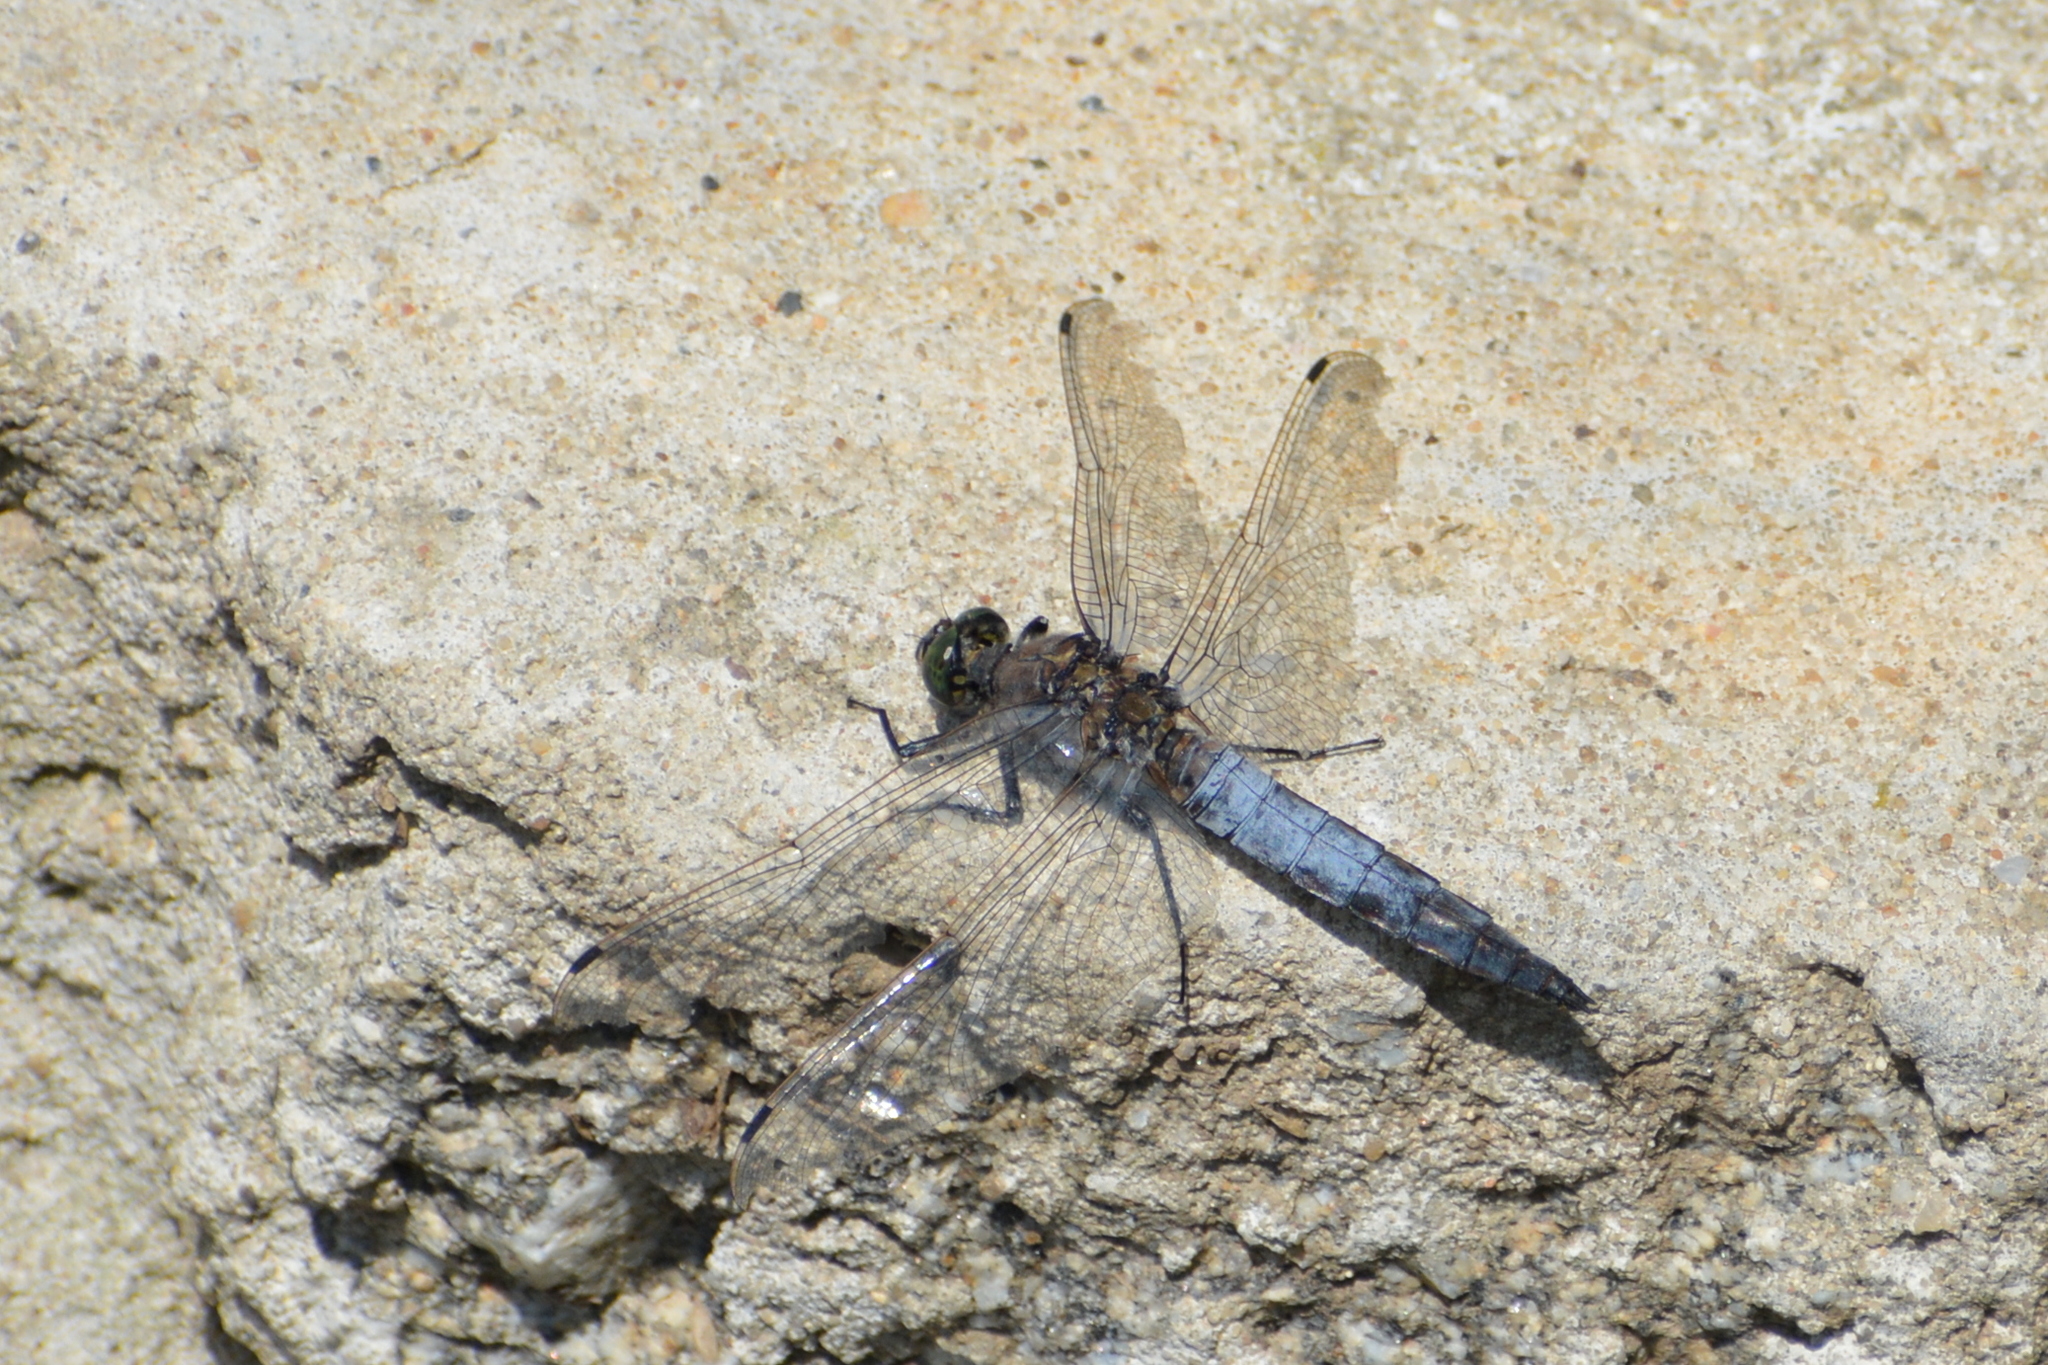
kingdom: Animalia
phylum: Arthropoda
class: Insecta
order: Odonata
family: Libellulidae
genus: Orthetrum
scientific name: Orthetrum cancellatum
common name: Black-tailed skimmer
